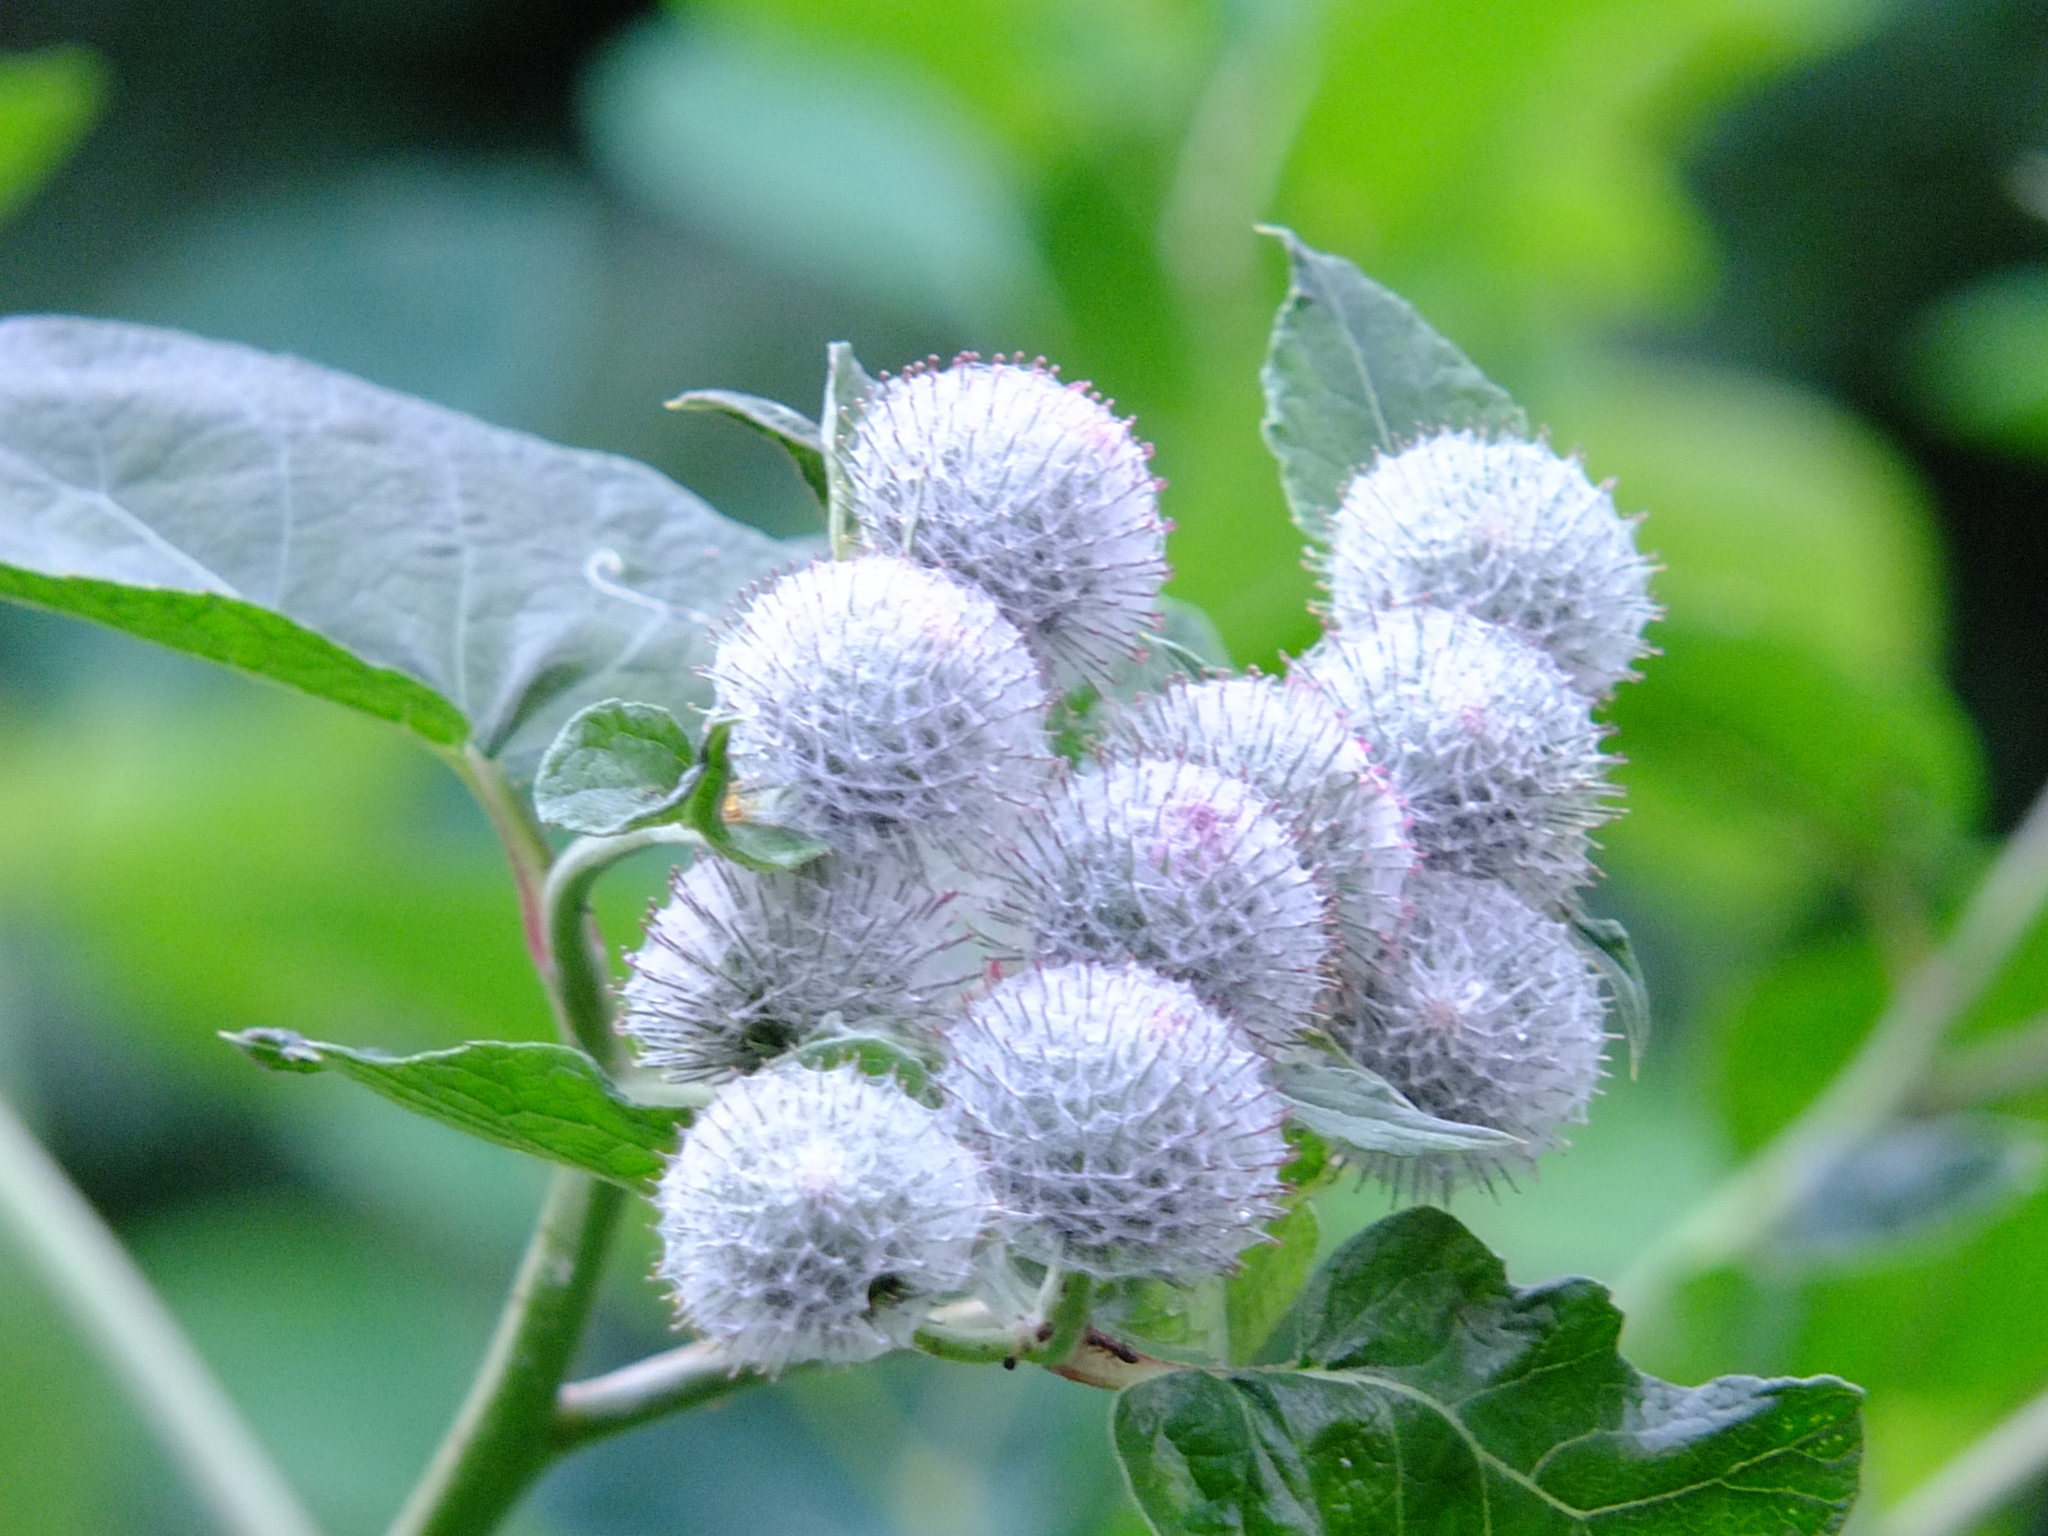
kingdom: Plantae
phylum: Tracheophyta
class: Magnoliopsida
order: Asterales
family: Asteraceae
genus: Arctium
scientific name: Arctium tomentosum
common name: Woolly burdock
